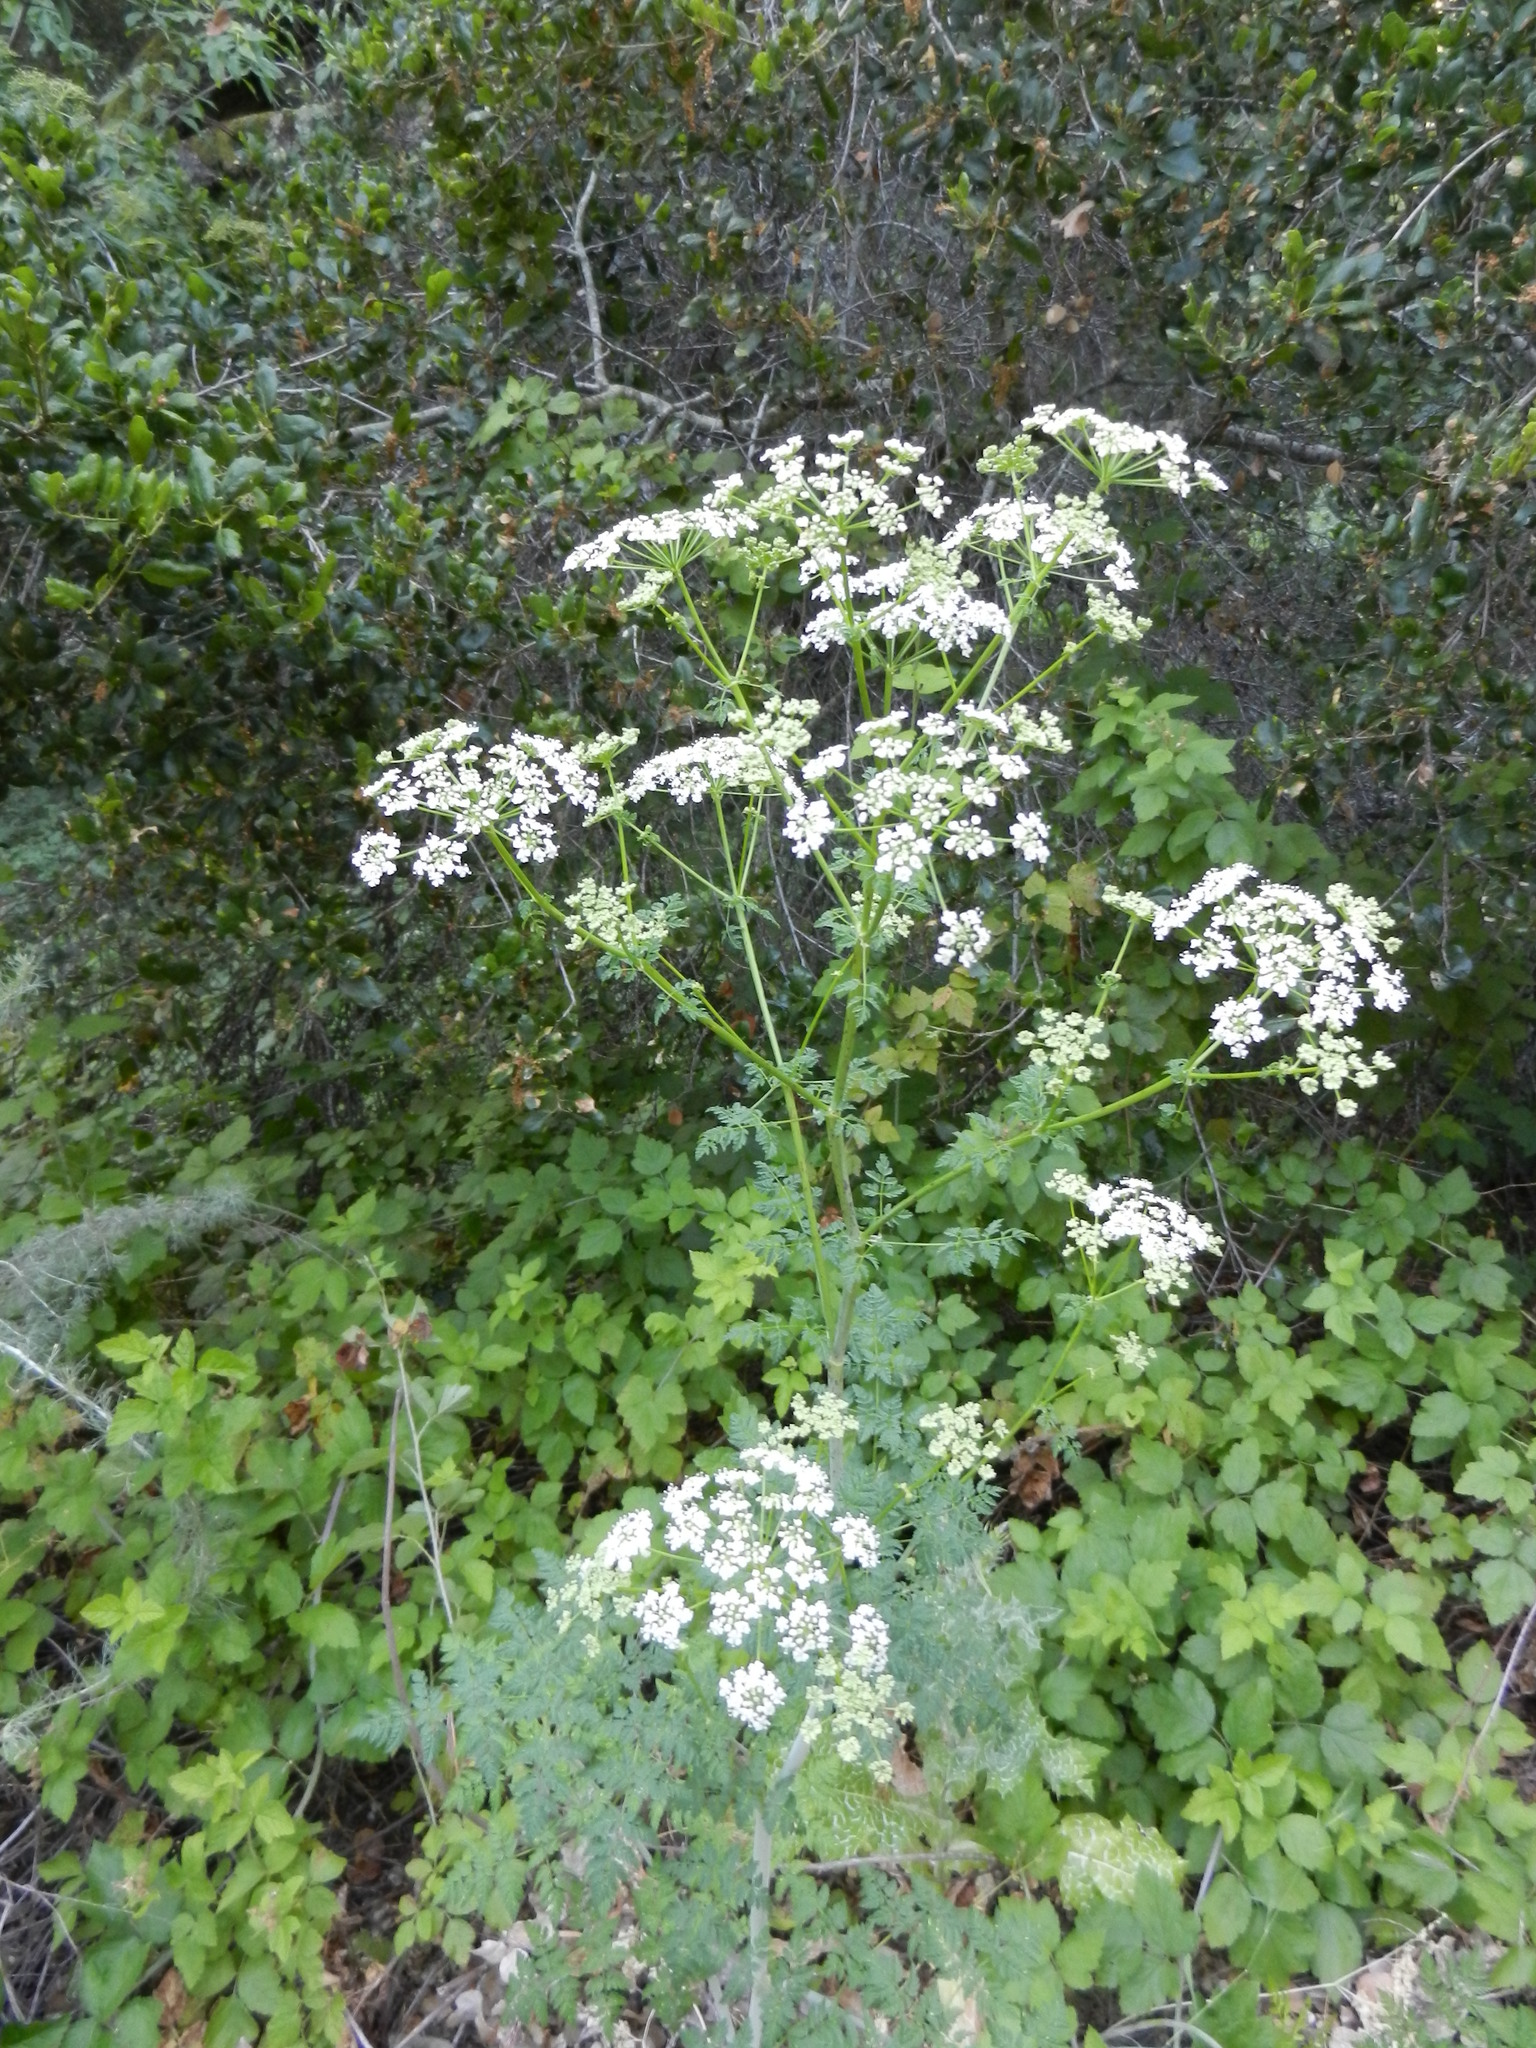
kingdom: Plantae
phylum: Tracheophyta
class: Magnoliopsida
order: Apiales
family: Apiaceae
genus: Conium
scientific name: Conium maculatum
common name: Hemlock
